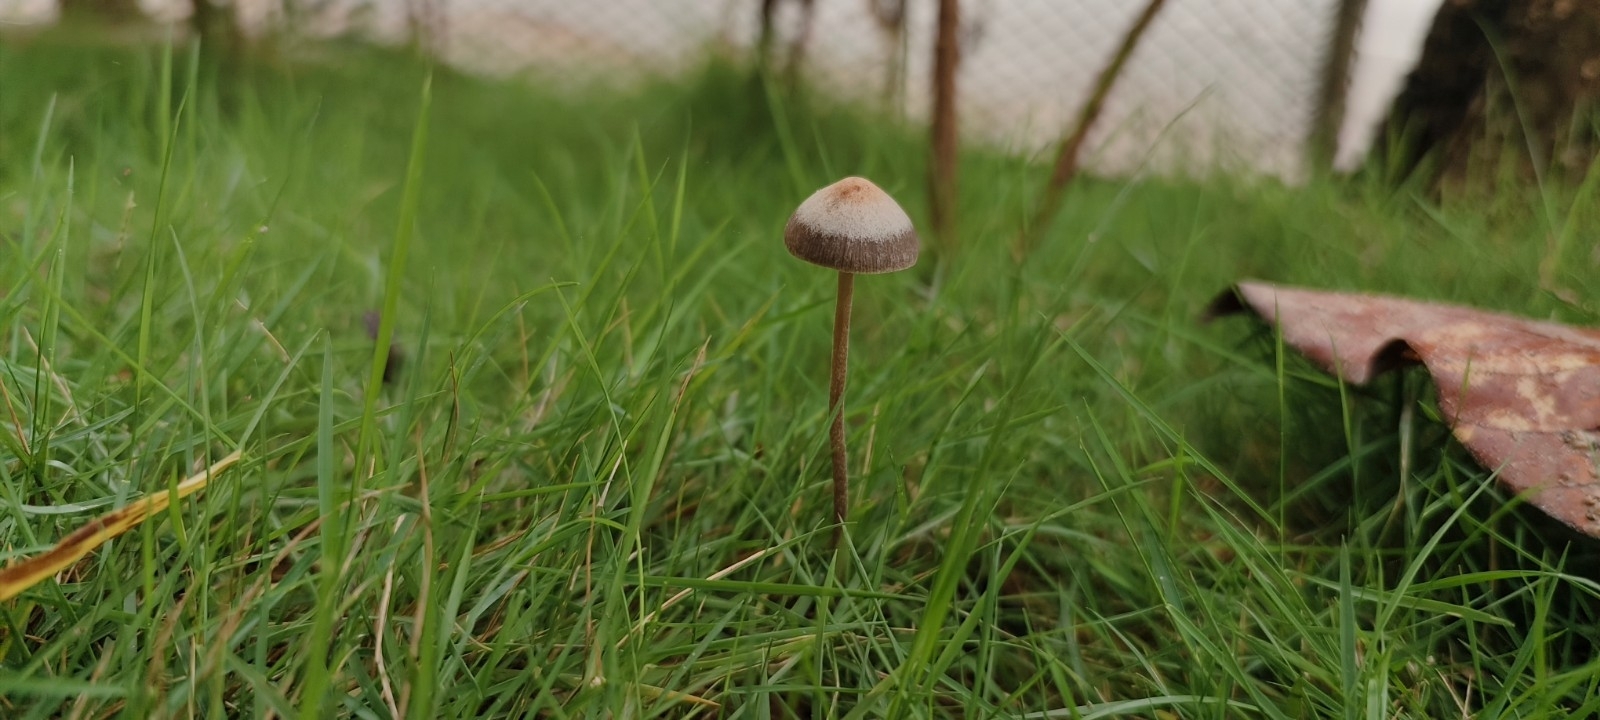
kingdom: Fungi
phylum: Basidiomycota
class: Agaricomycetes
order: Agaricales
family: Bolbitiaceae
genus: Panaeolina
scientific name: Panaeolina foenisecii
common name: Brown hay cap
